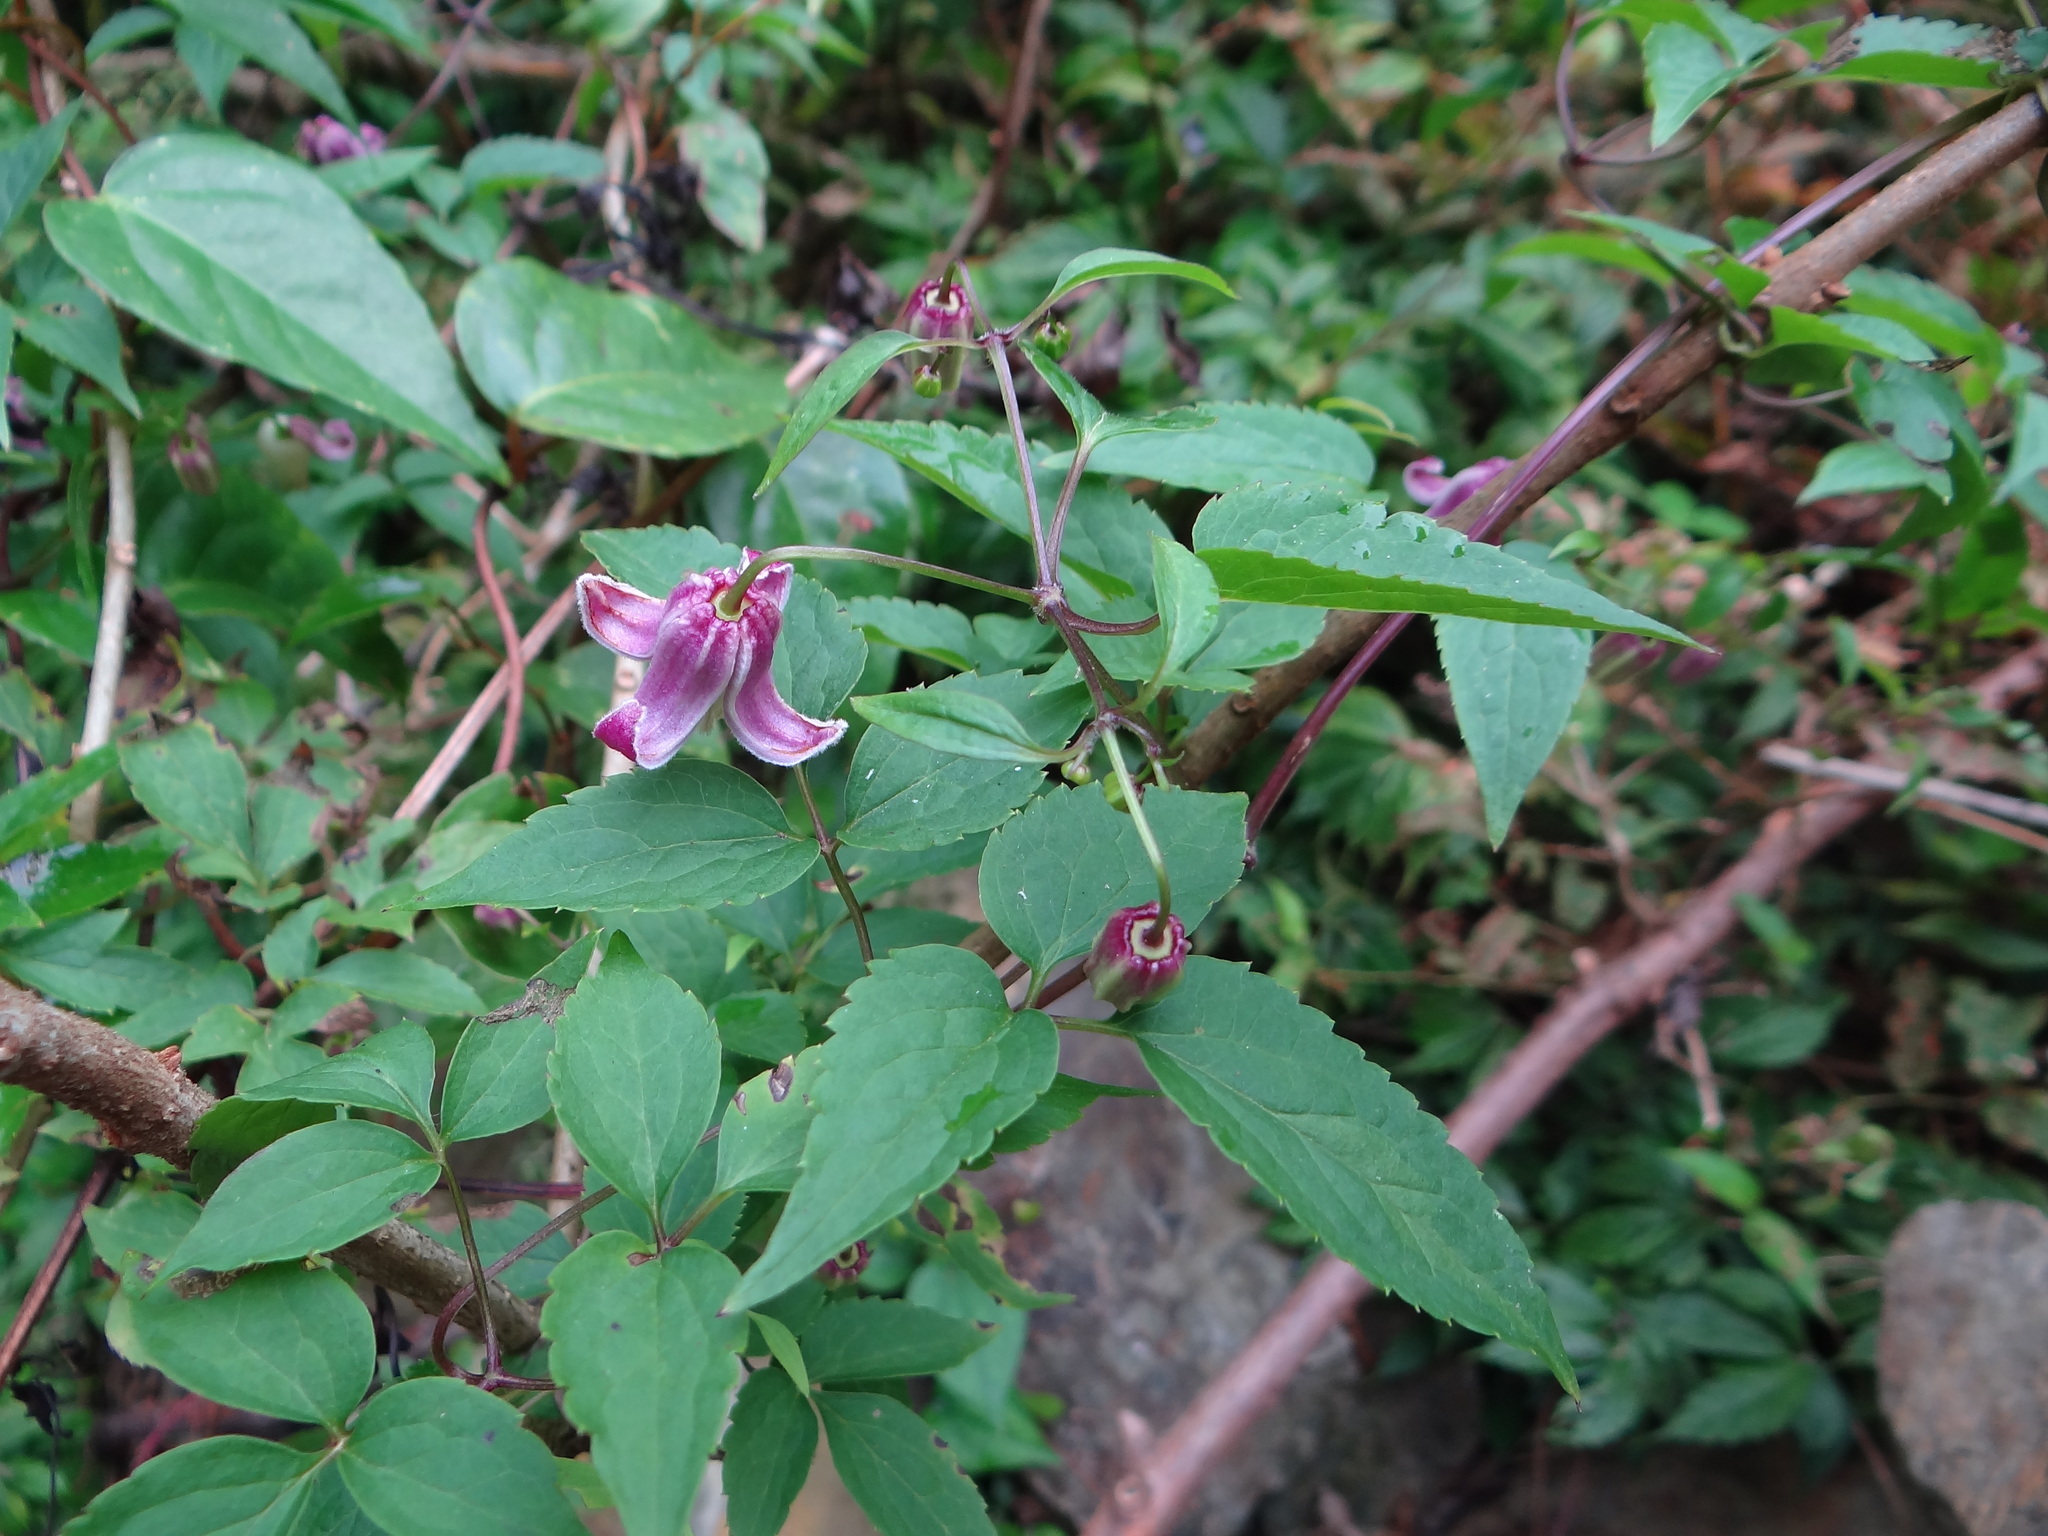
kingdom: Plantae
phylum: Tracheophyta
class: Magnoliopsida
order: Ranunculales
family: Ranunculaceae
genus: Clematis
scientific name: Clematis lasiandra
